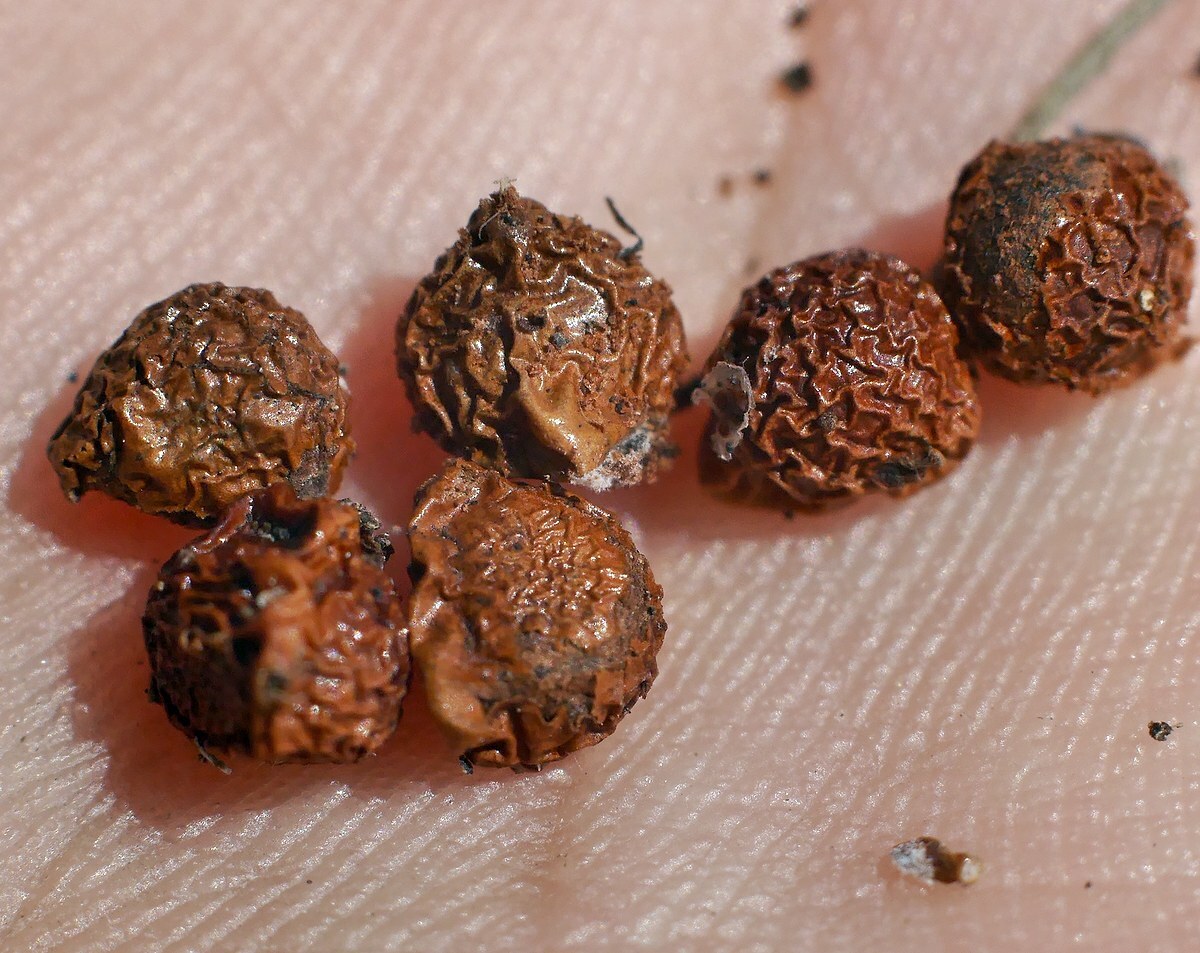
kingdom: Plantae
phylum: Tracheophyta
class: Liliopsida
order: Asparagales
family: Iridaceae
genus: Iris
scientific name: Iris pontica
